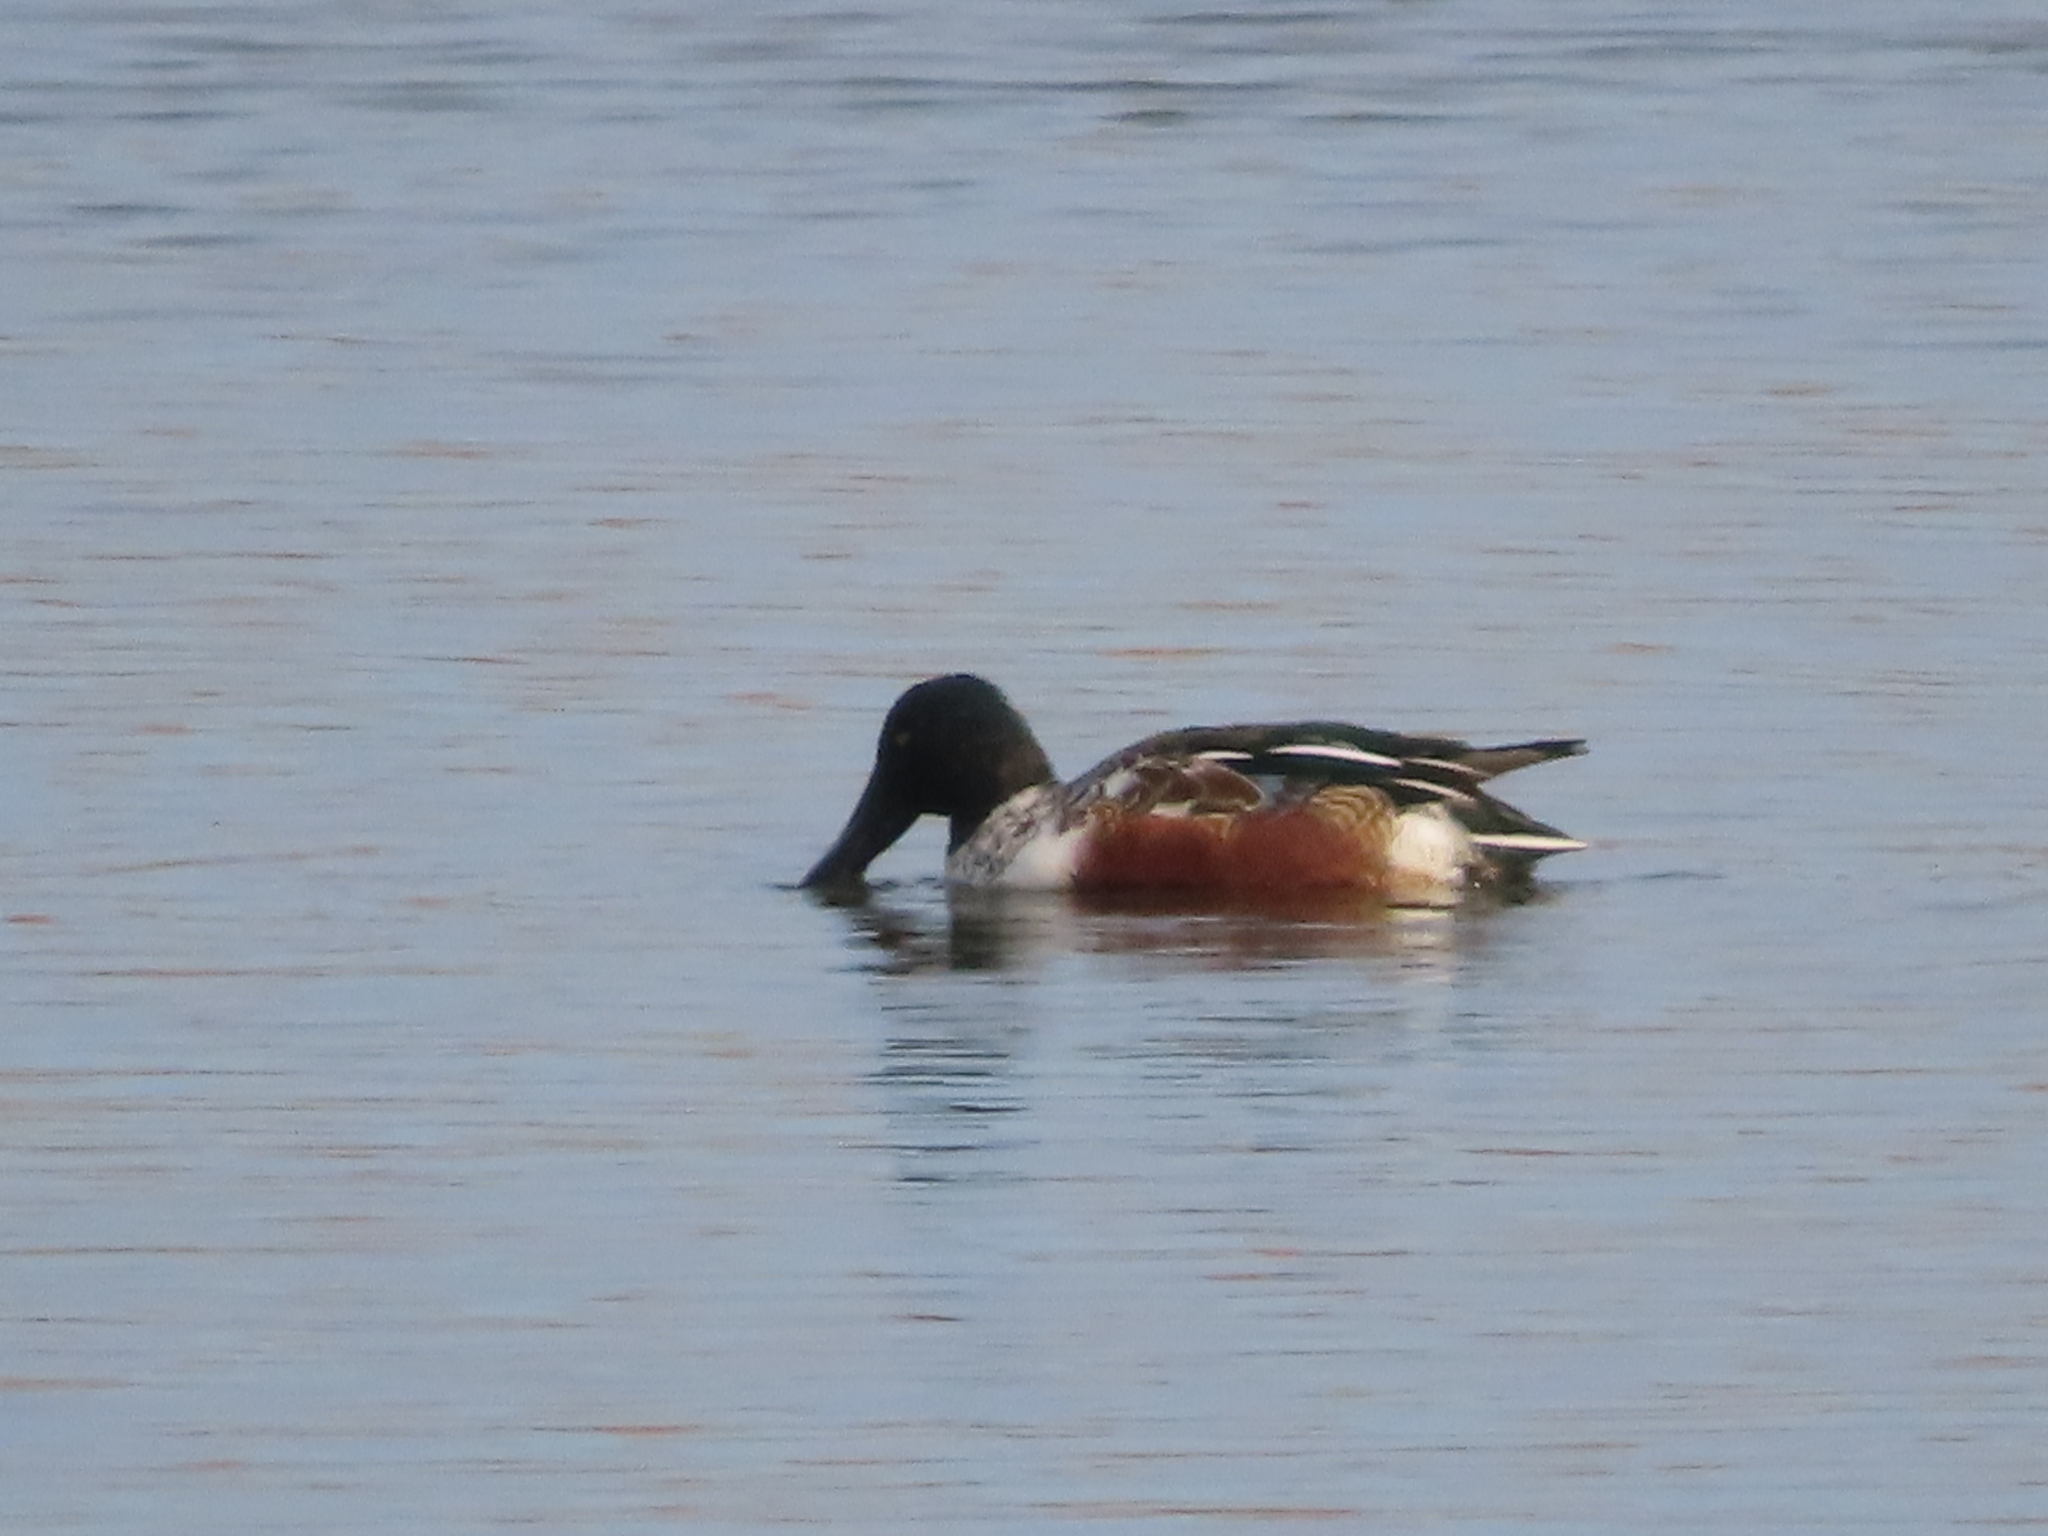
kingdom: Animalia
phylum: Chordata
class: Aves
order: Anseriformes
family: Anatidae
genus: Spatula
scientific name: Spatula clypeata
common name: Northern shoveler
